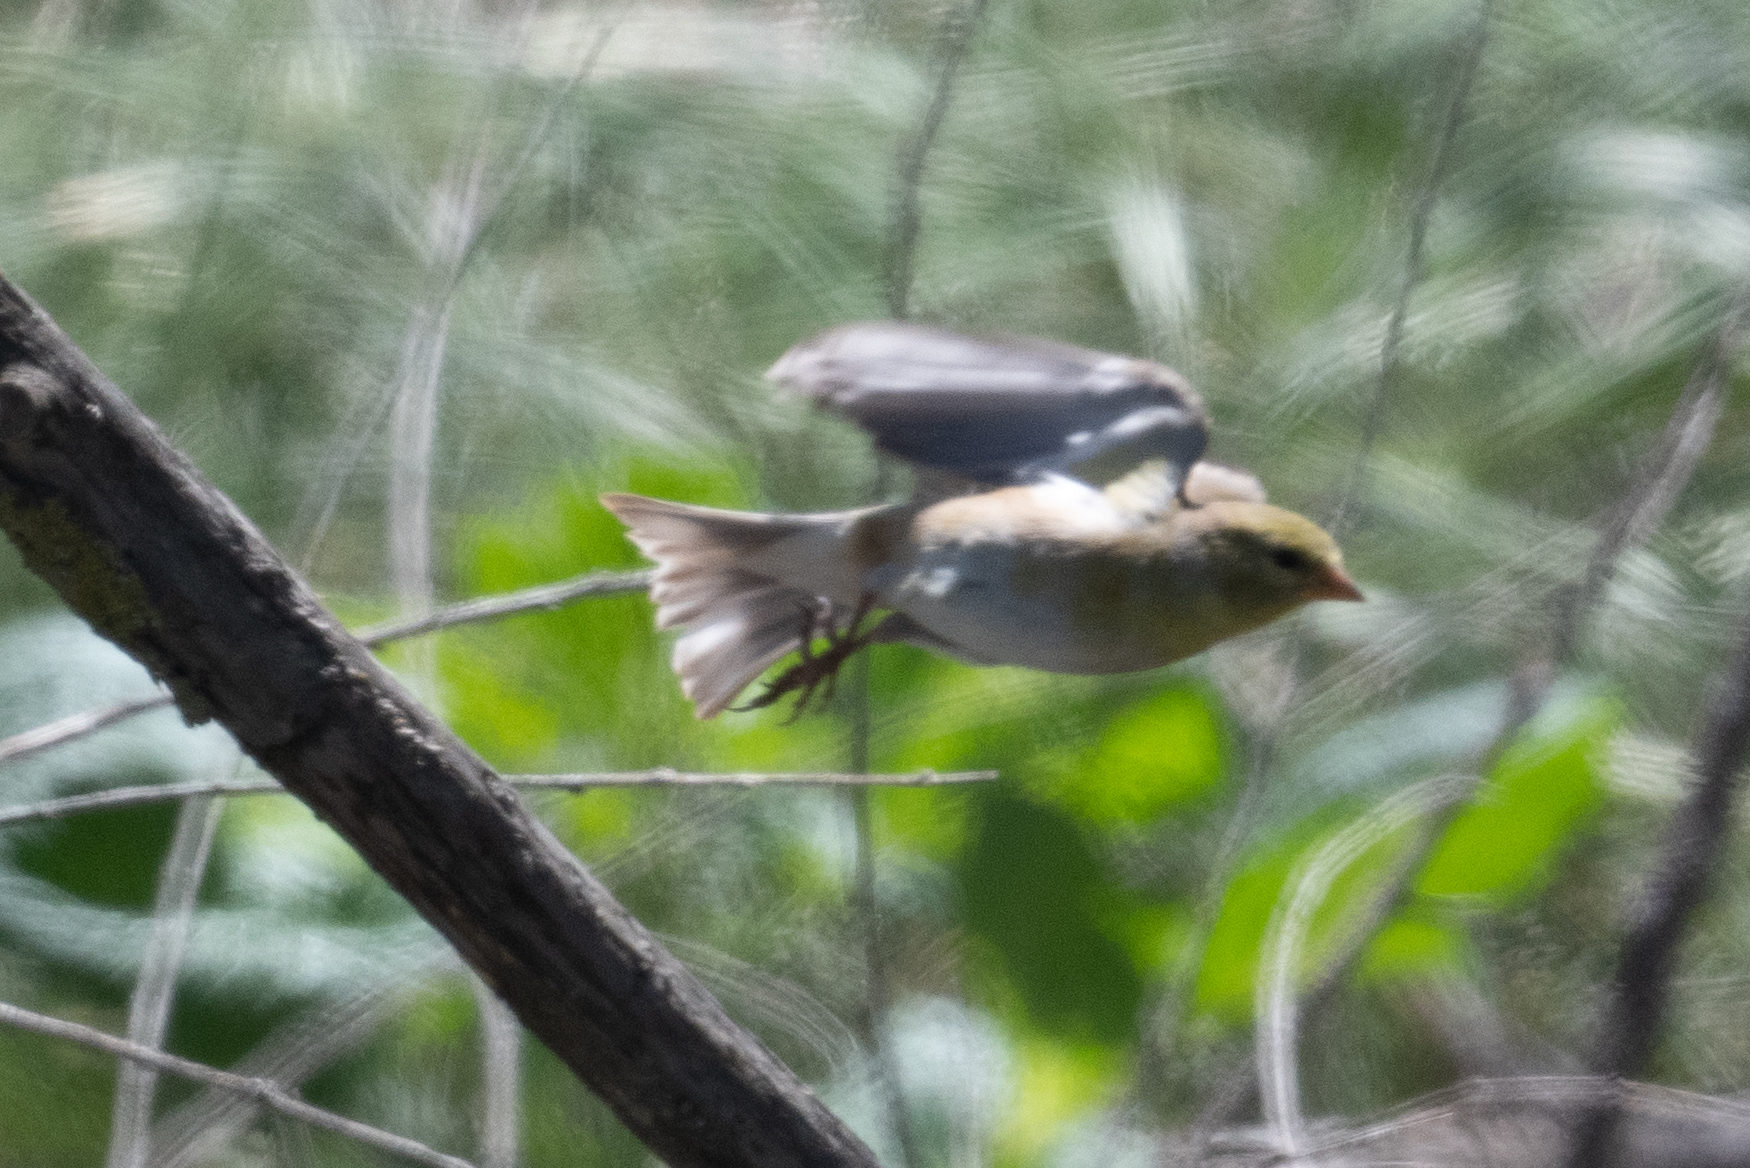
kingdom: Animalia
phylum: Chordata
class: Aves
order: Passeriformes
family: Fringillidae
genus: Spinus
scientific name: Spinus tristis
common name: American goldfinch
